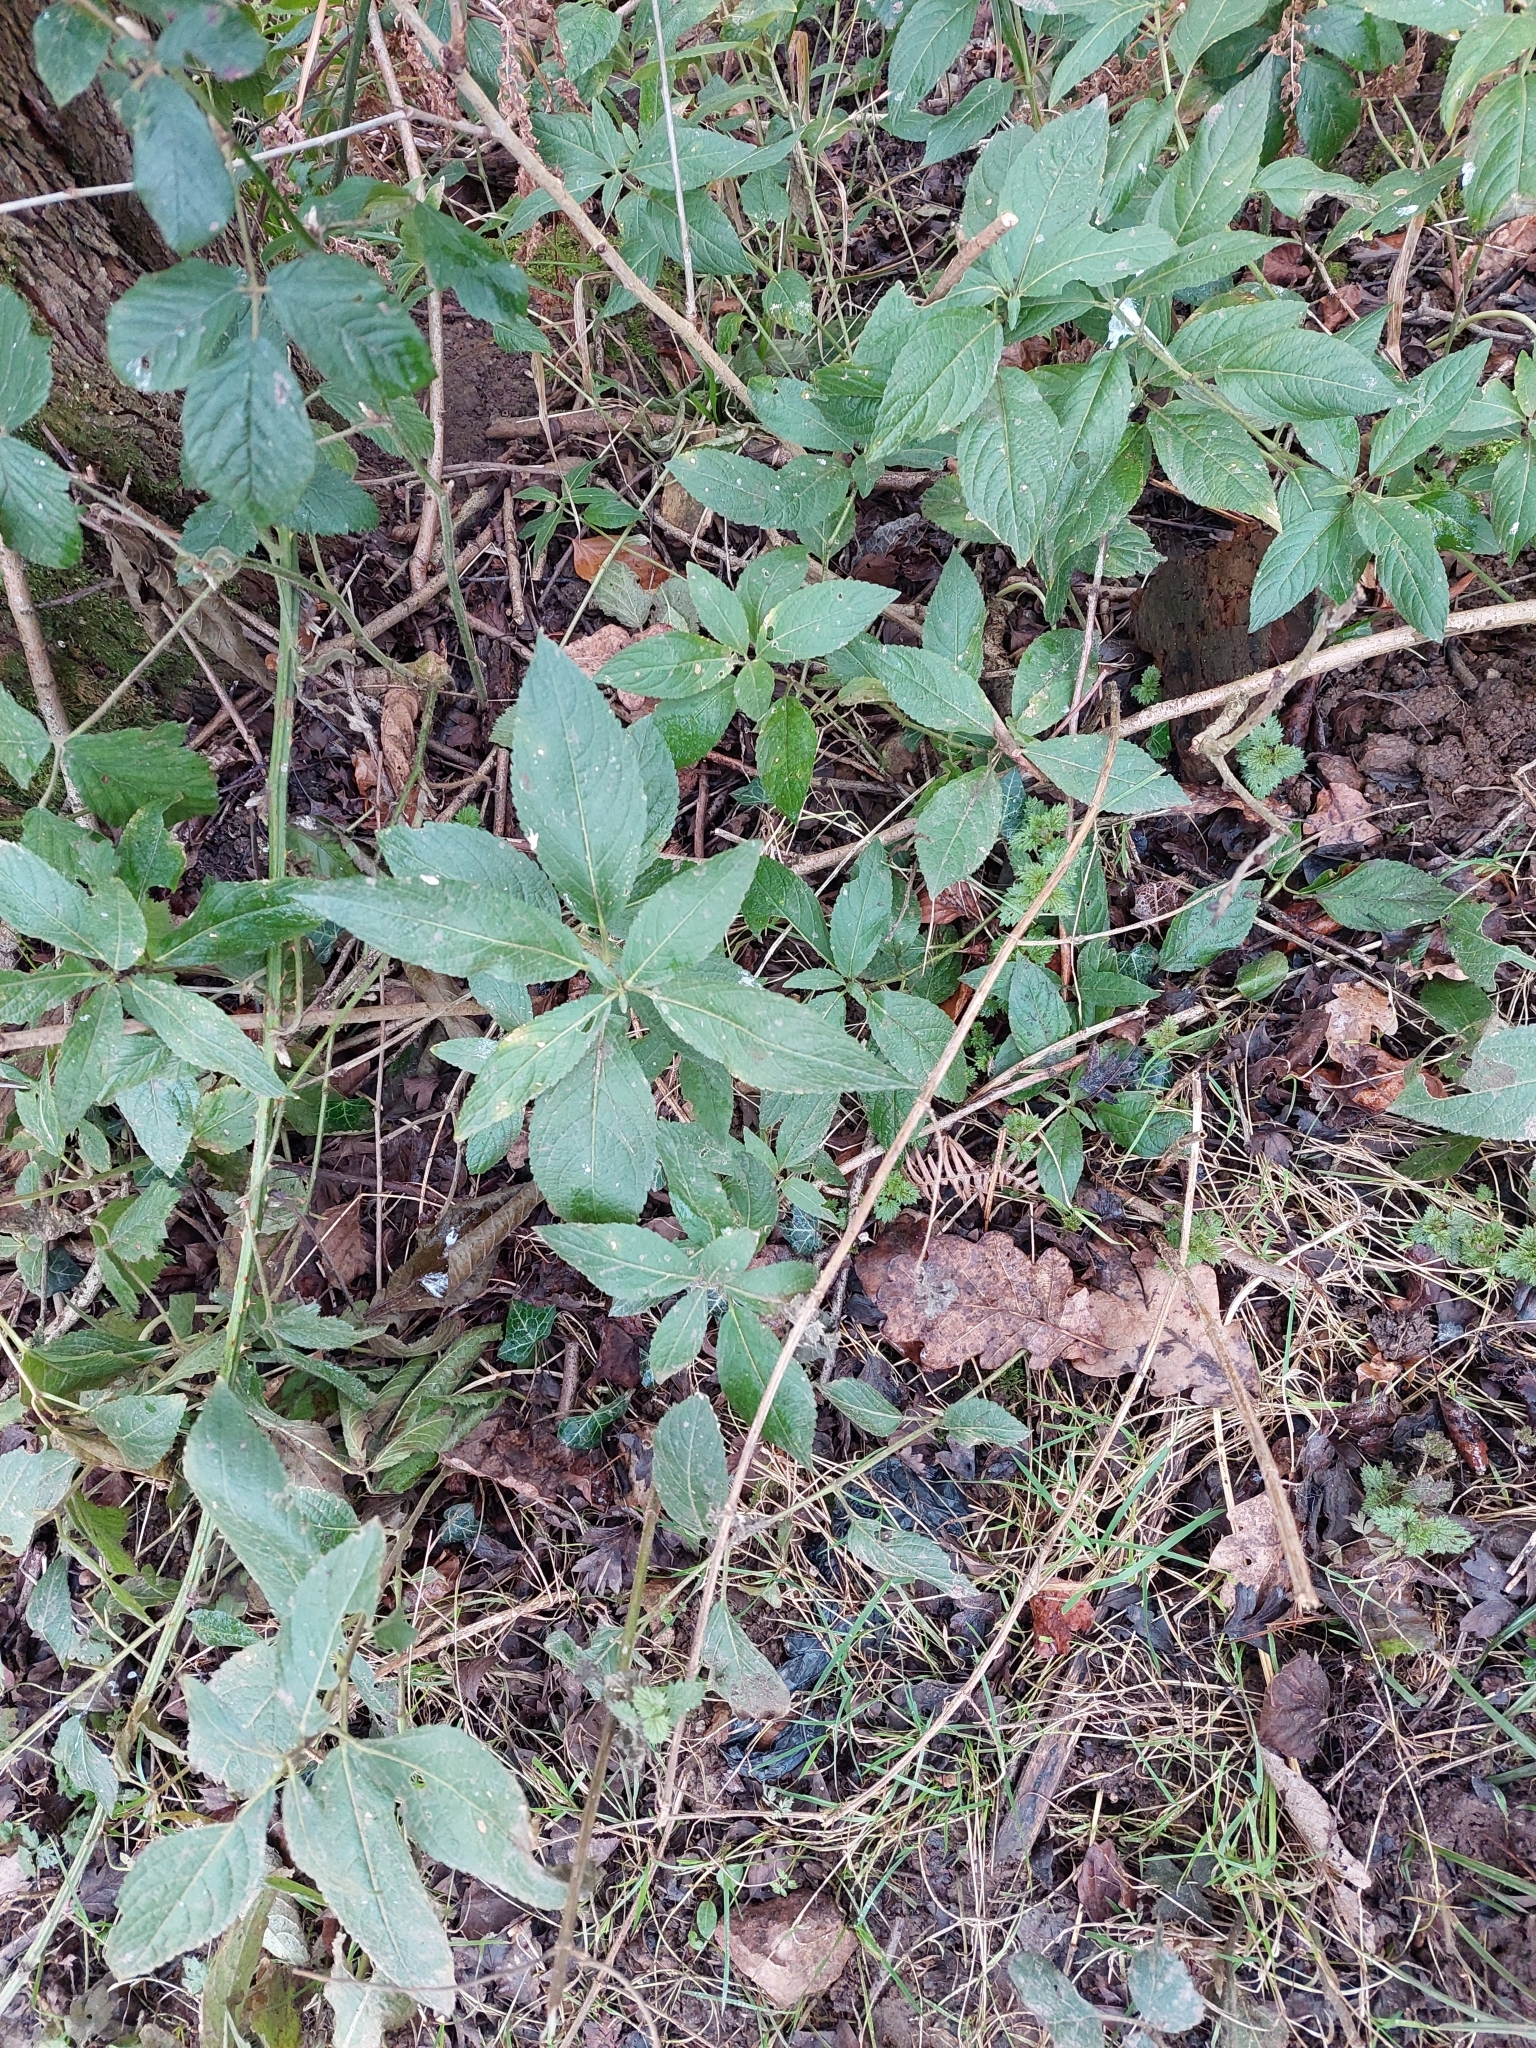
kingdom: Plantae
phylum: Tracheophyta
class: Magnoliopsida
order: Malpighiales
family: Euphorbiaceae
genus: Mercurialis
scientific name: Mercurialis perennis
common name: Dog mercury
